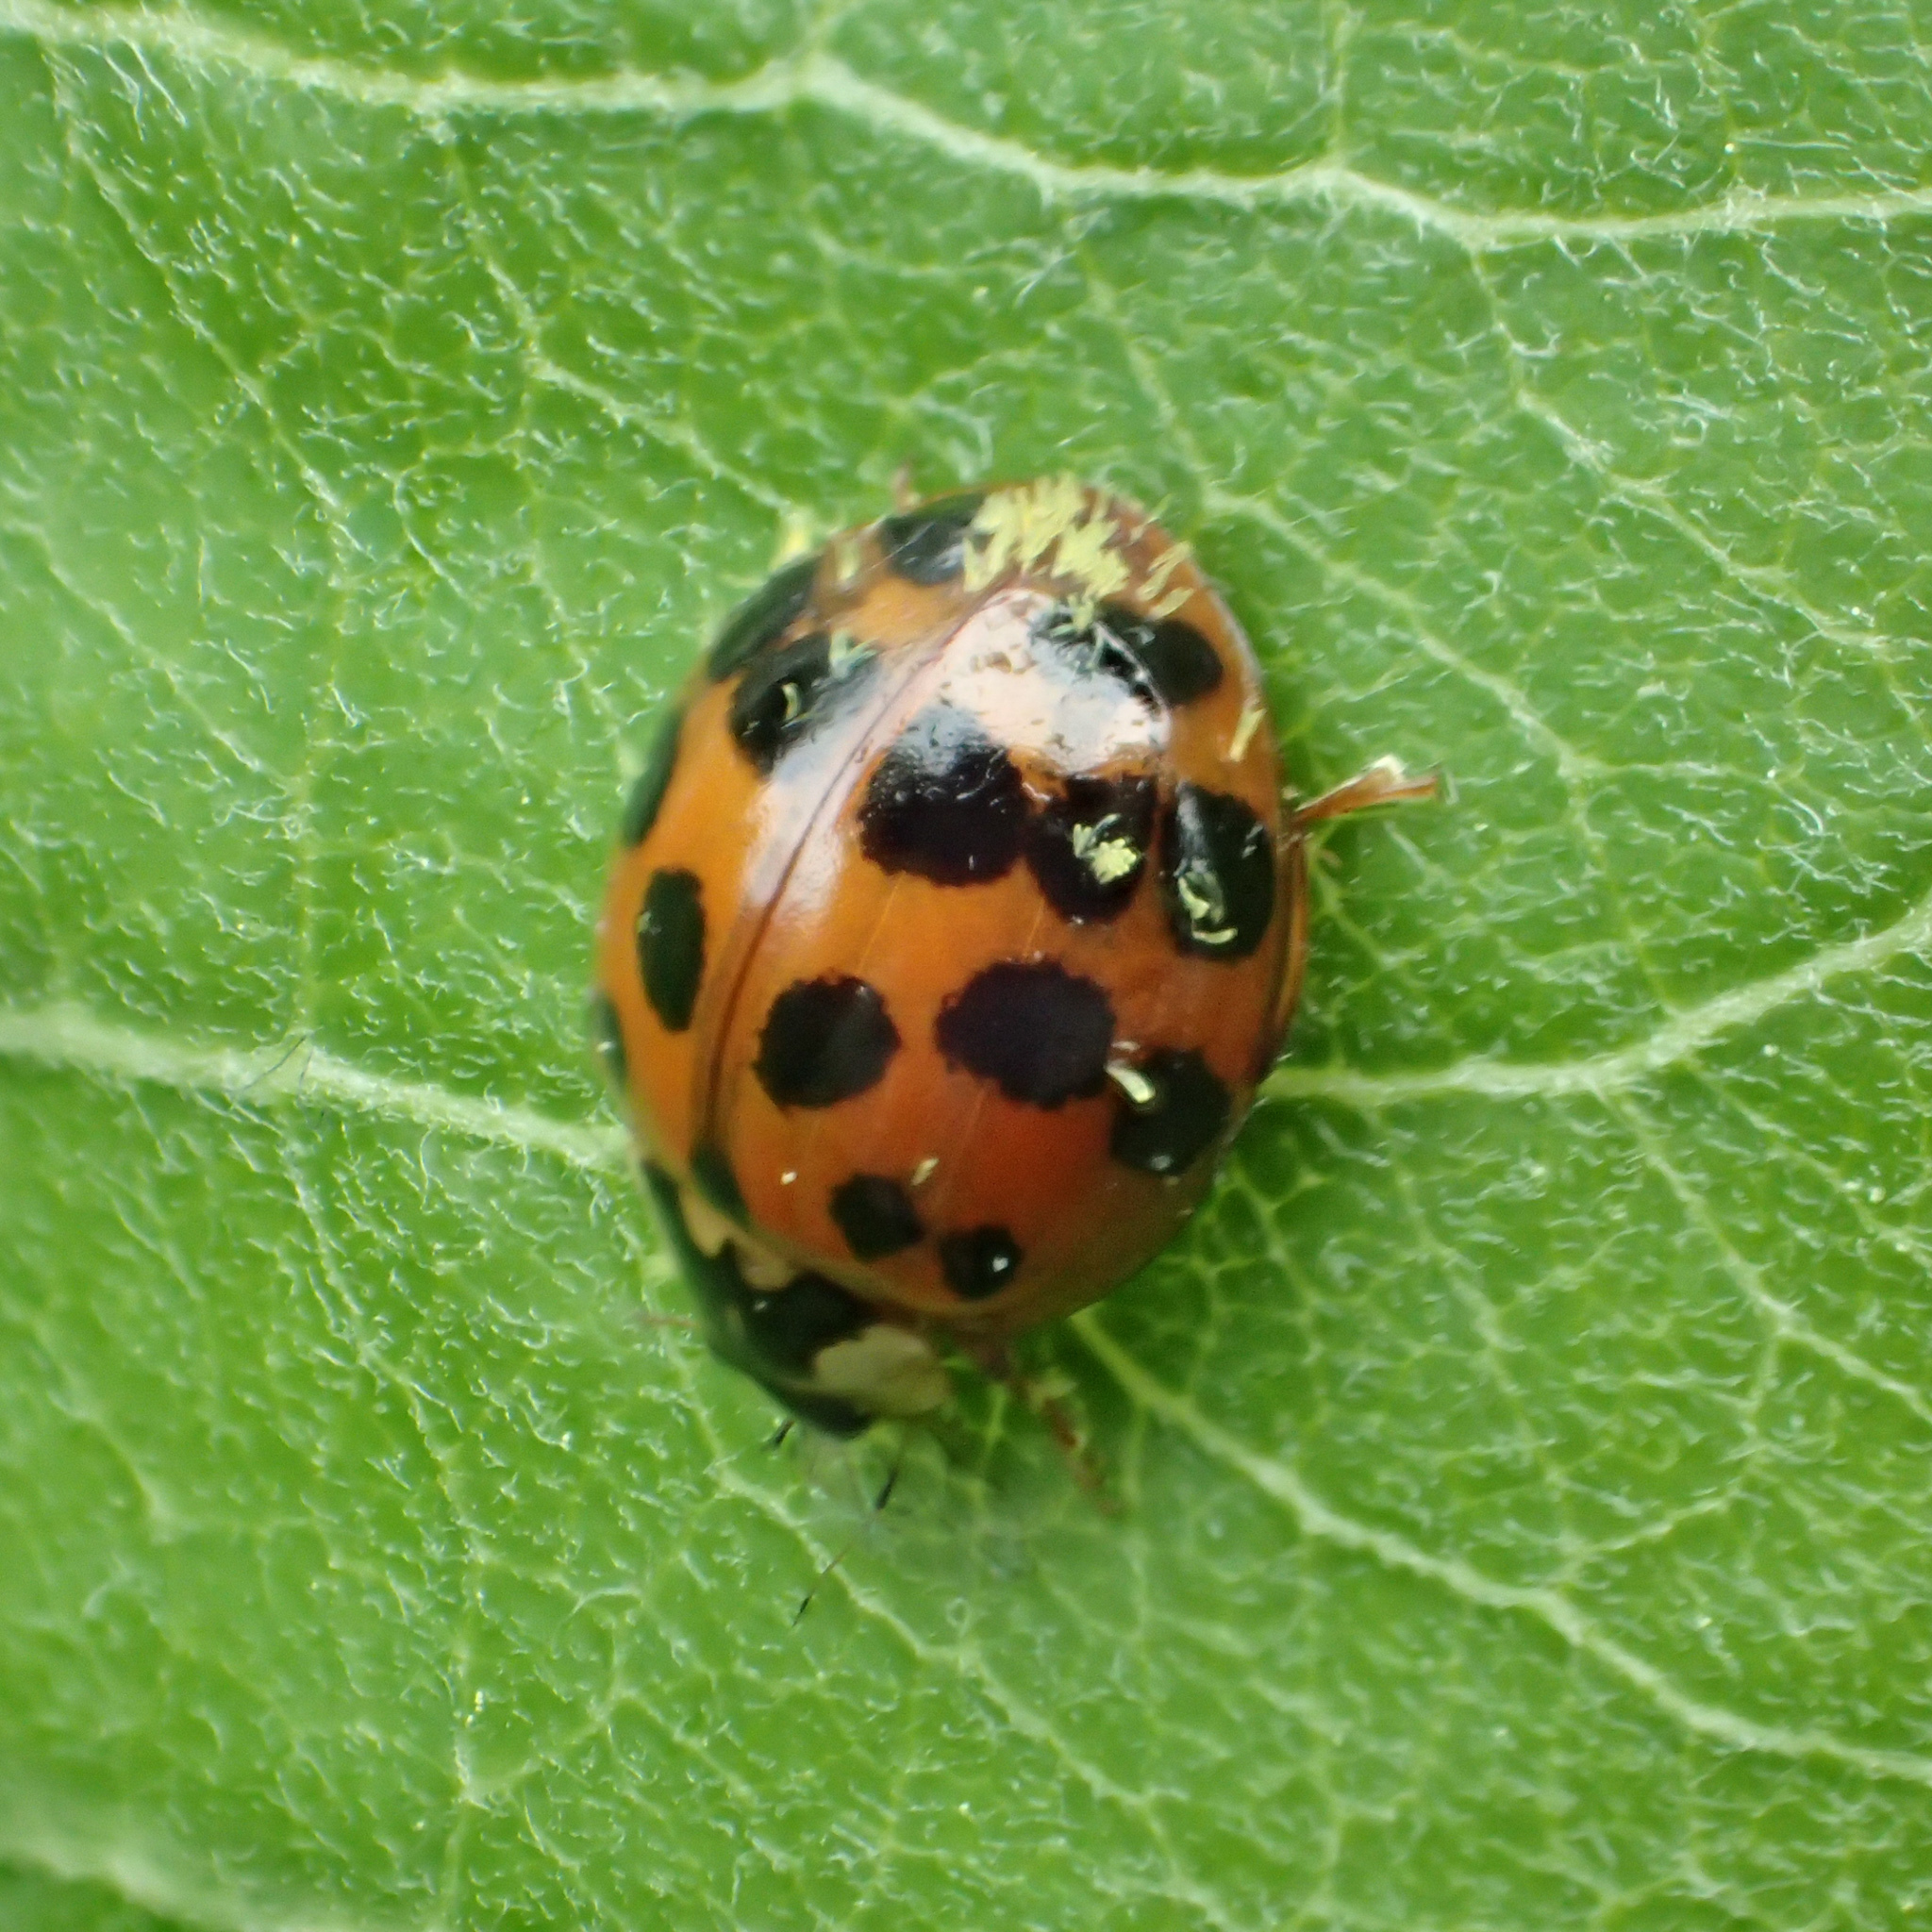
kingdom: Fungi
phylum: Ascomycota
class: Laboulbeniomycetes
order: Laboulbeniales
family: Laboulbeniaceae
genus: Hesperomyces
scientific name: Hesperomyces harmoniae
